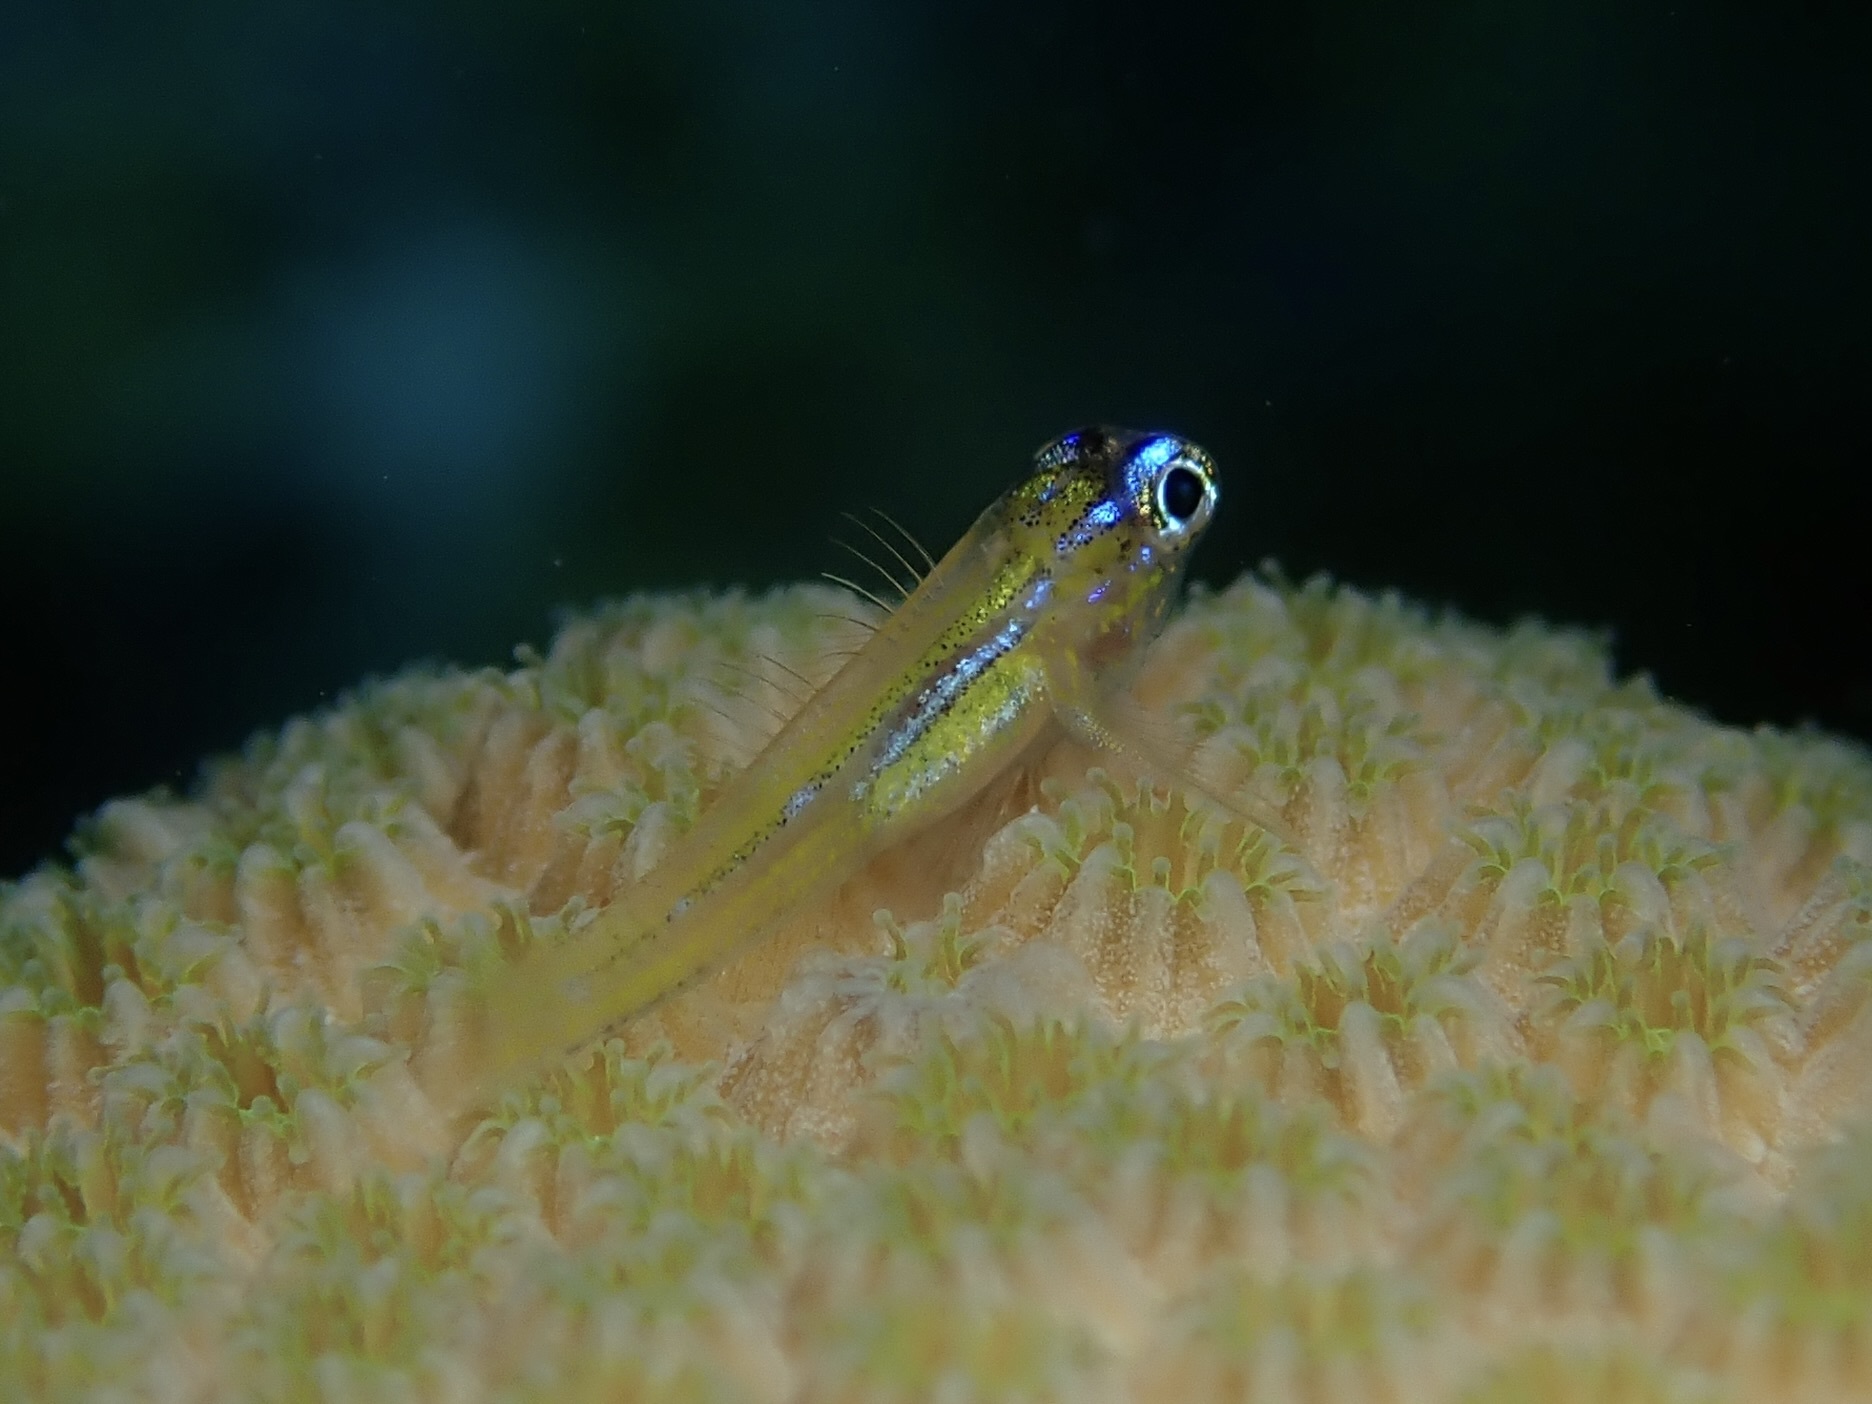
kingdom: Animalia
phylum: Chordata
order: Perciformes
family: Gobiidae
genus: Coryphopterus
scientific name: Coryphopterus lipernes
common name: Peppermint goby
